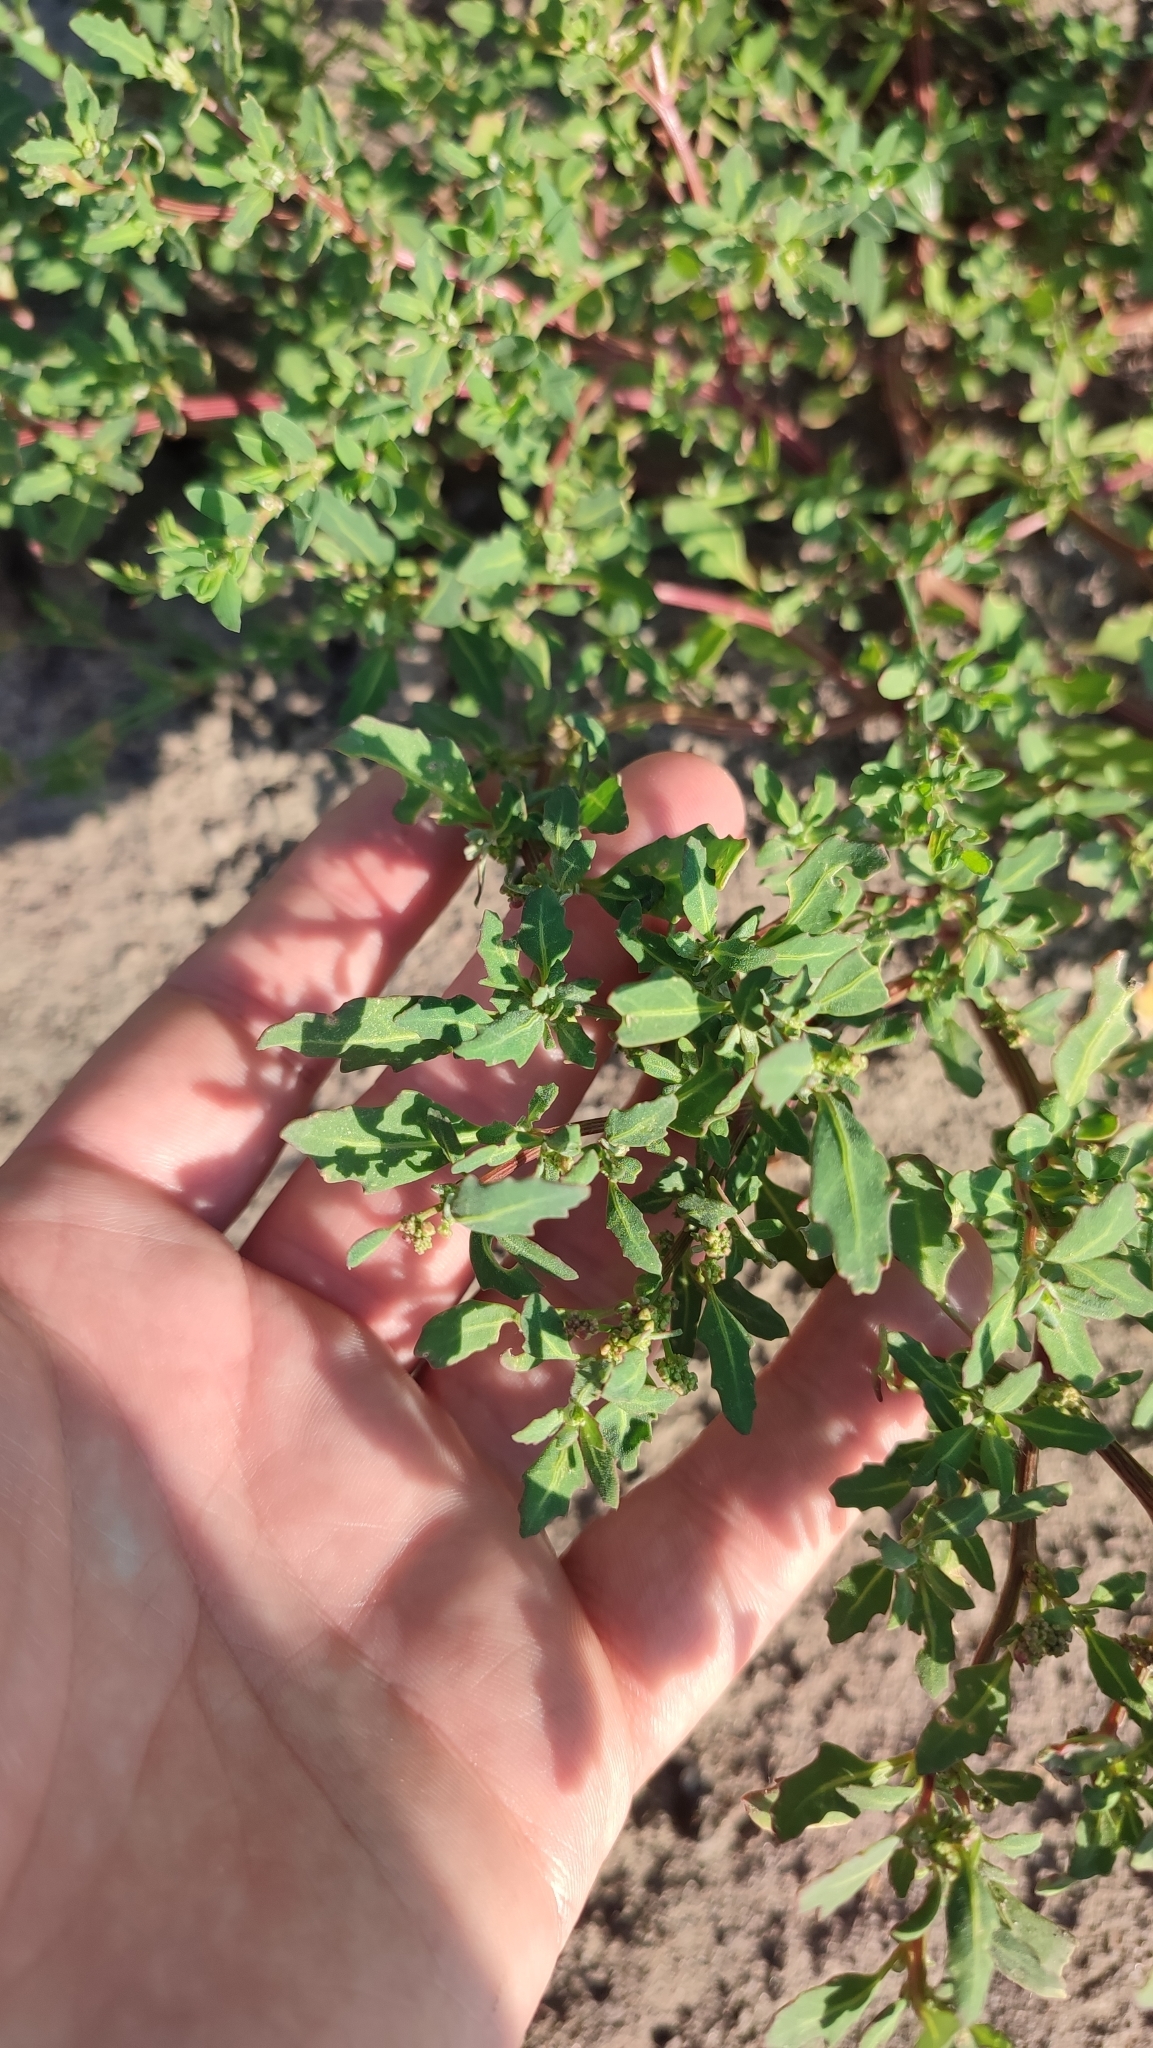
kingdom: Plantae
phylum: Tracheophyta
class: Magnoliopsida
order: Caryophyllales
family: Amaranthaceae
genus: Oxybasis
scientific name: Oxybasis glauca
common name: Glaucous goosefoot
